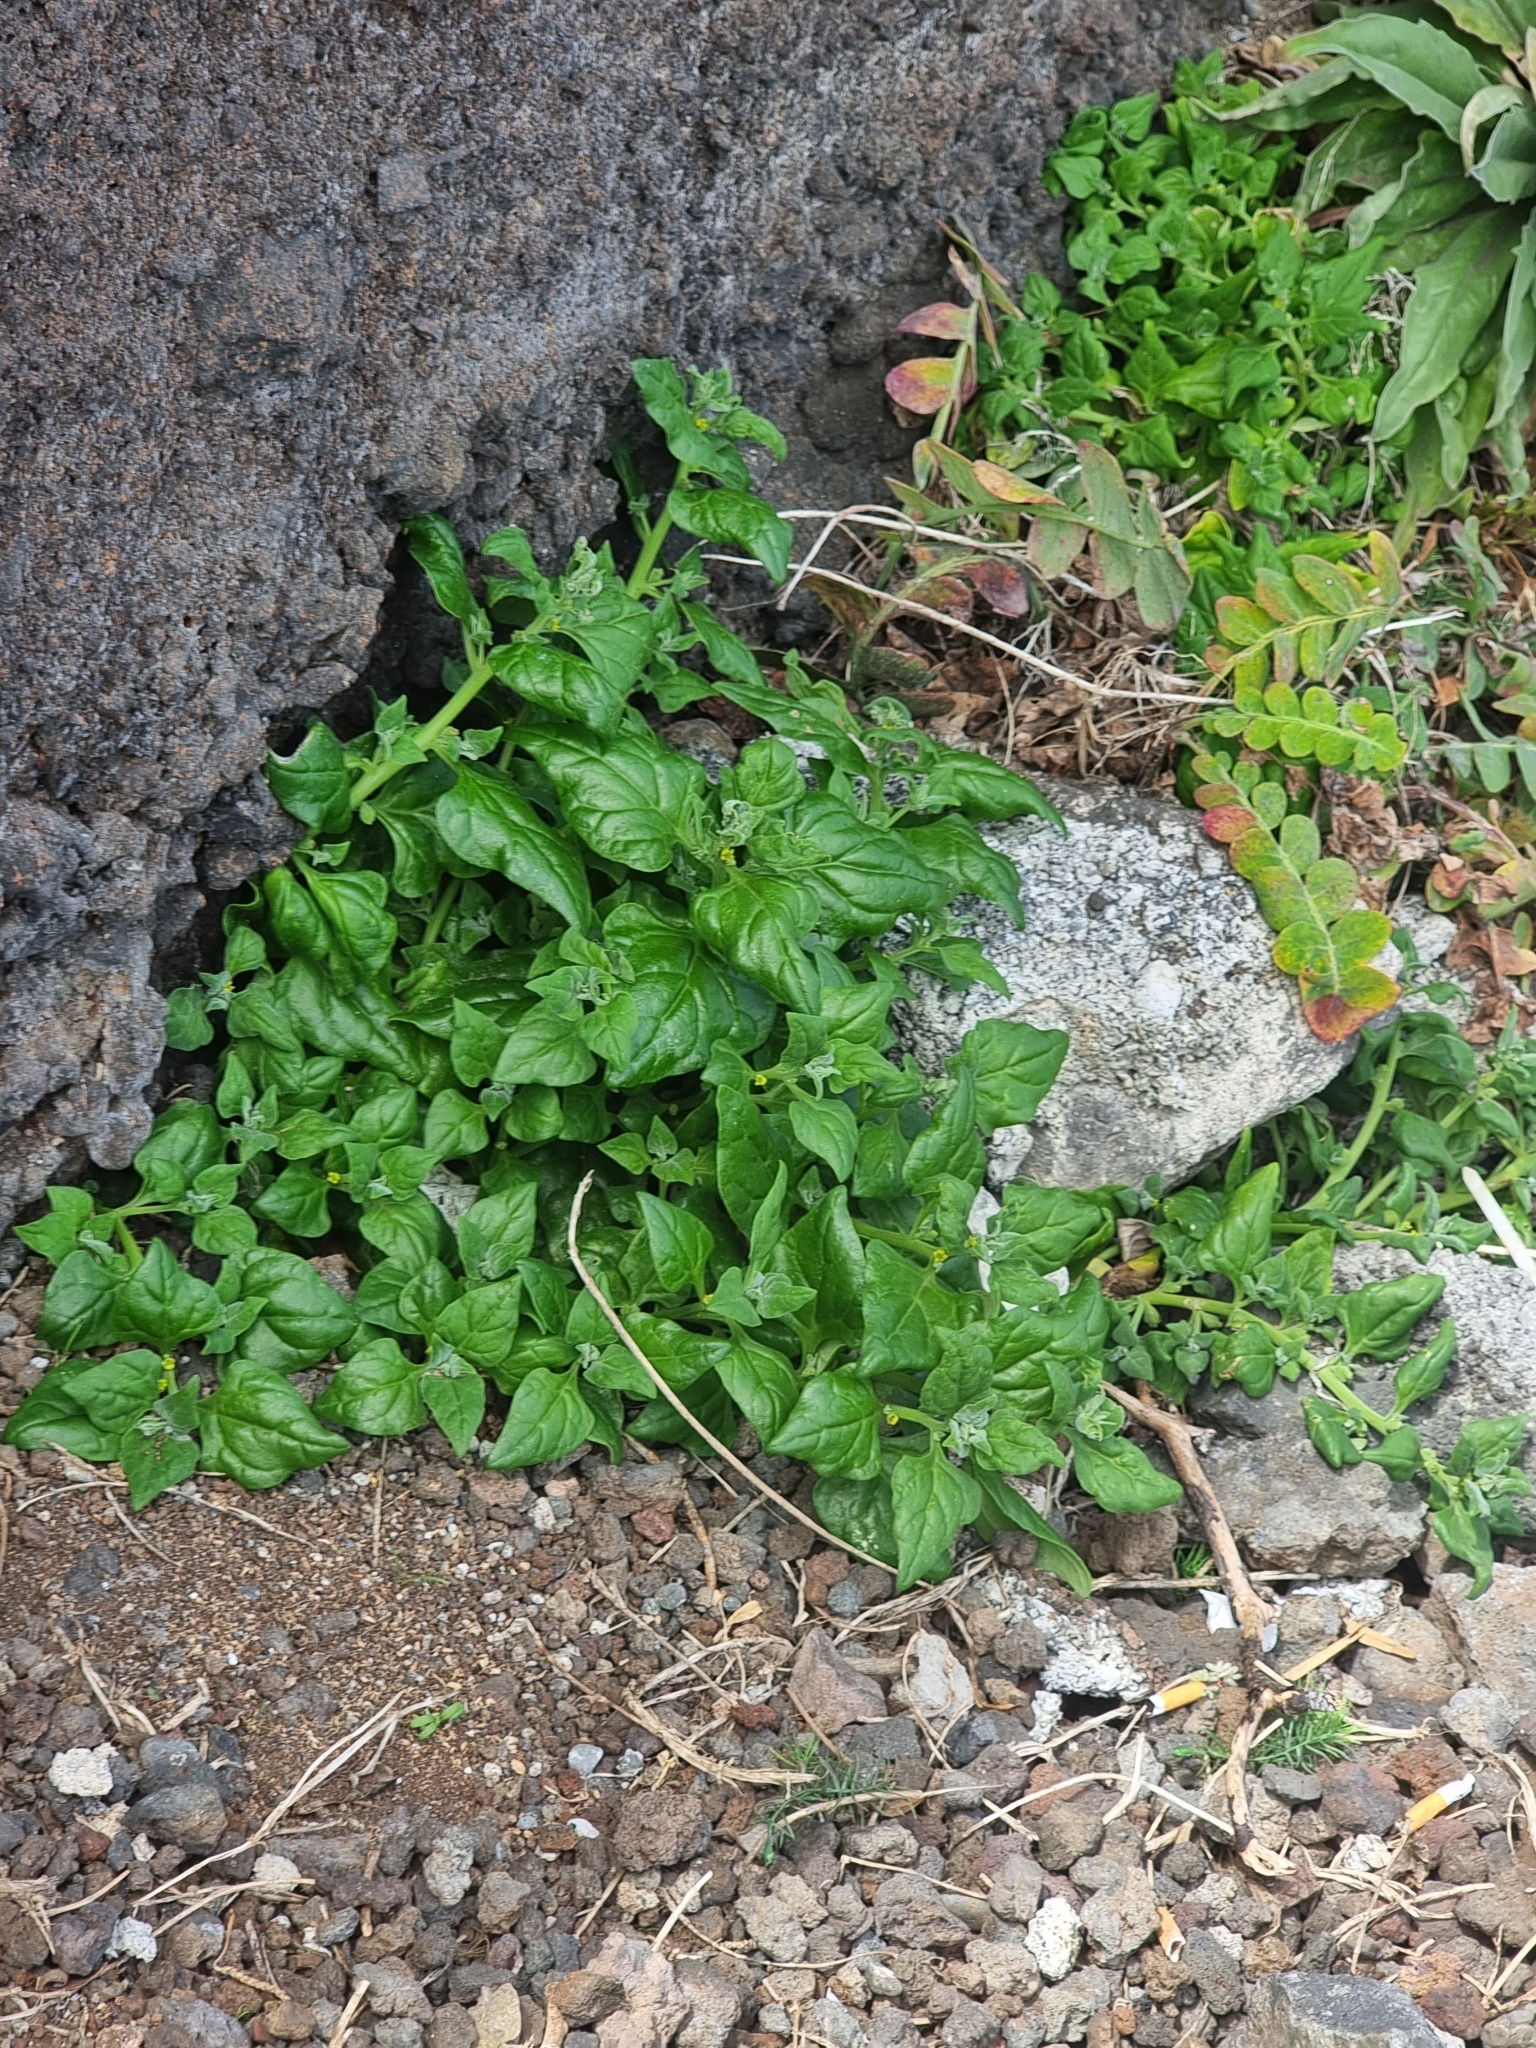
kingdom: Plantae
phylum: Tracheophyta
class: Magnoliopsida
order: Caryophyllales
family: Aizoaceae
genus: Tetragonia
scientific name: Tetragonia tetragonoides
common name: New zealand-spinach
